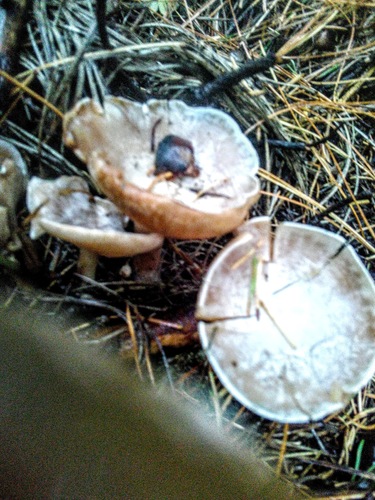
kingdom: Fungi
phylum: Basidiomycota
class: Agaricomycetes
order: Agaricales
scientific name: Agaricales
